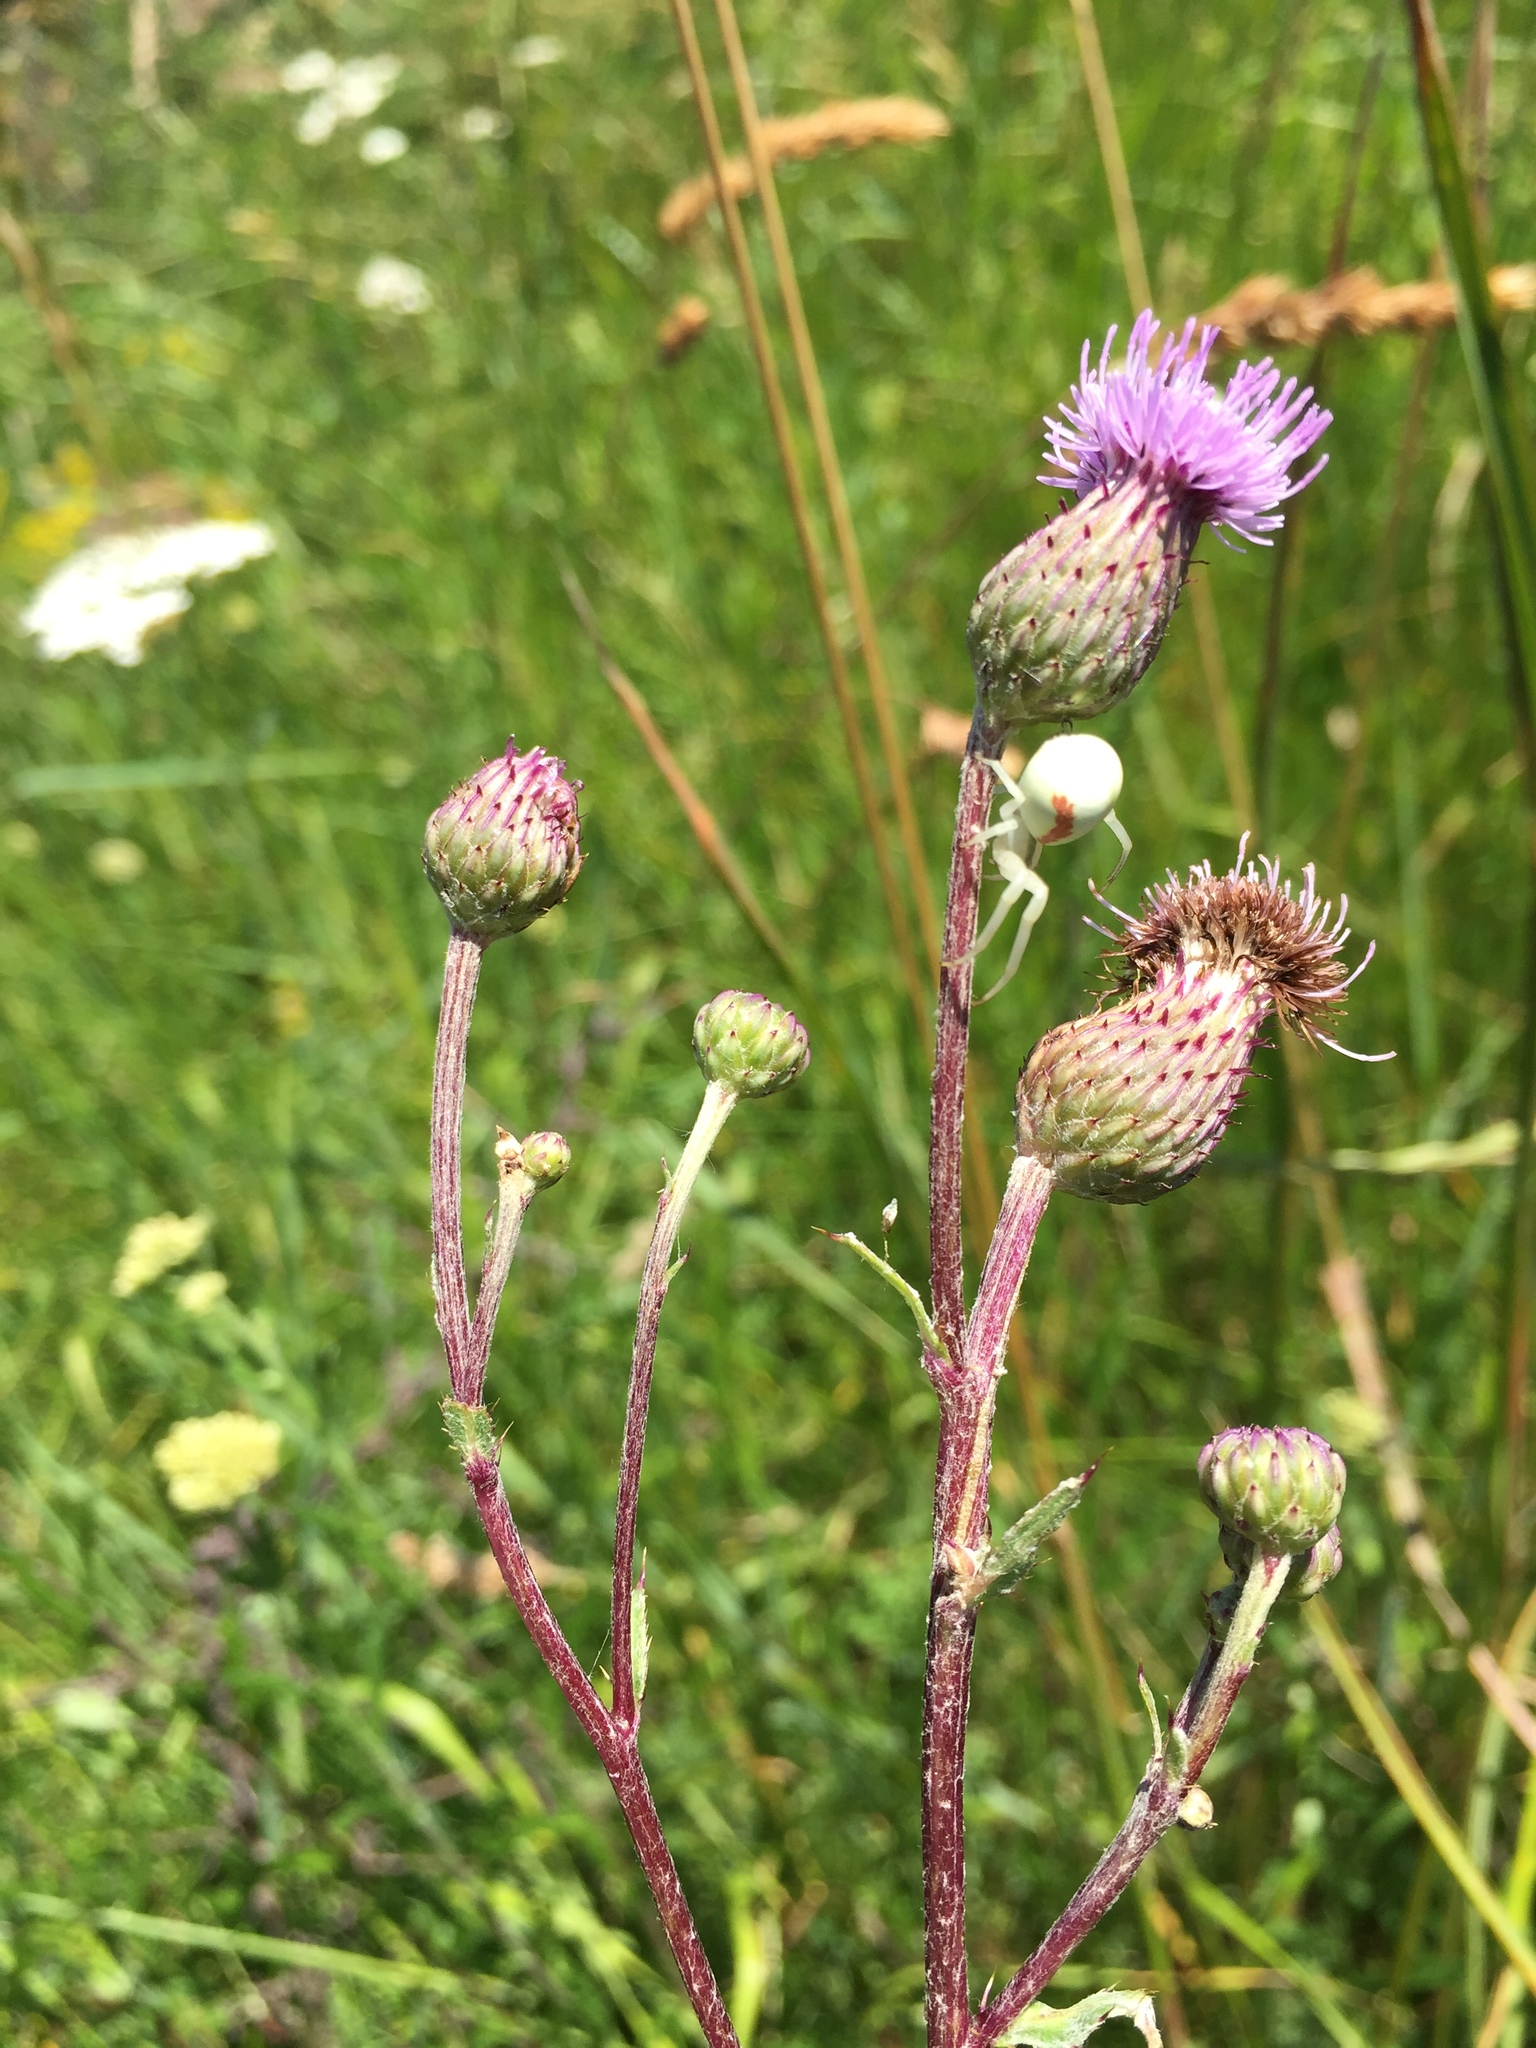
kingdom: Animalia
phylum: Arthropoda
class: Arachnida
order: Araneae
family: Thomisidae
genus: Misumena
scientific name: Misumena vatia
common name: Goldenrod crab spider
